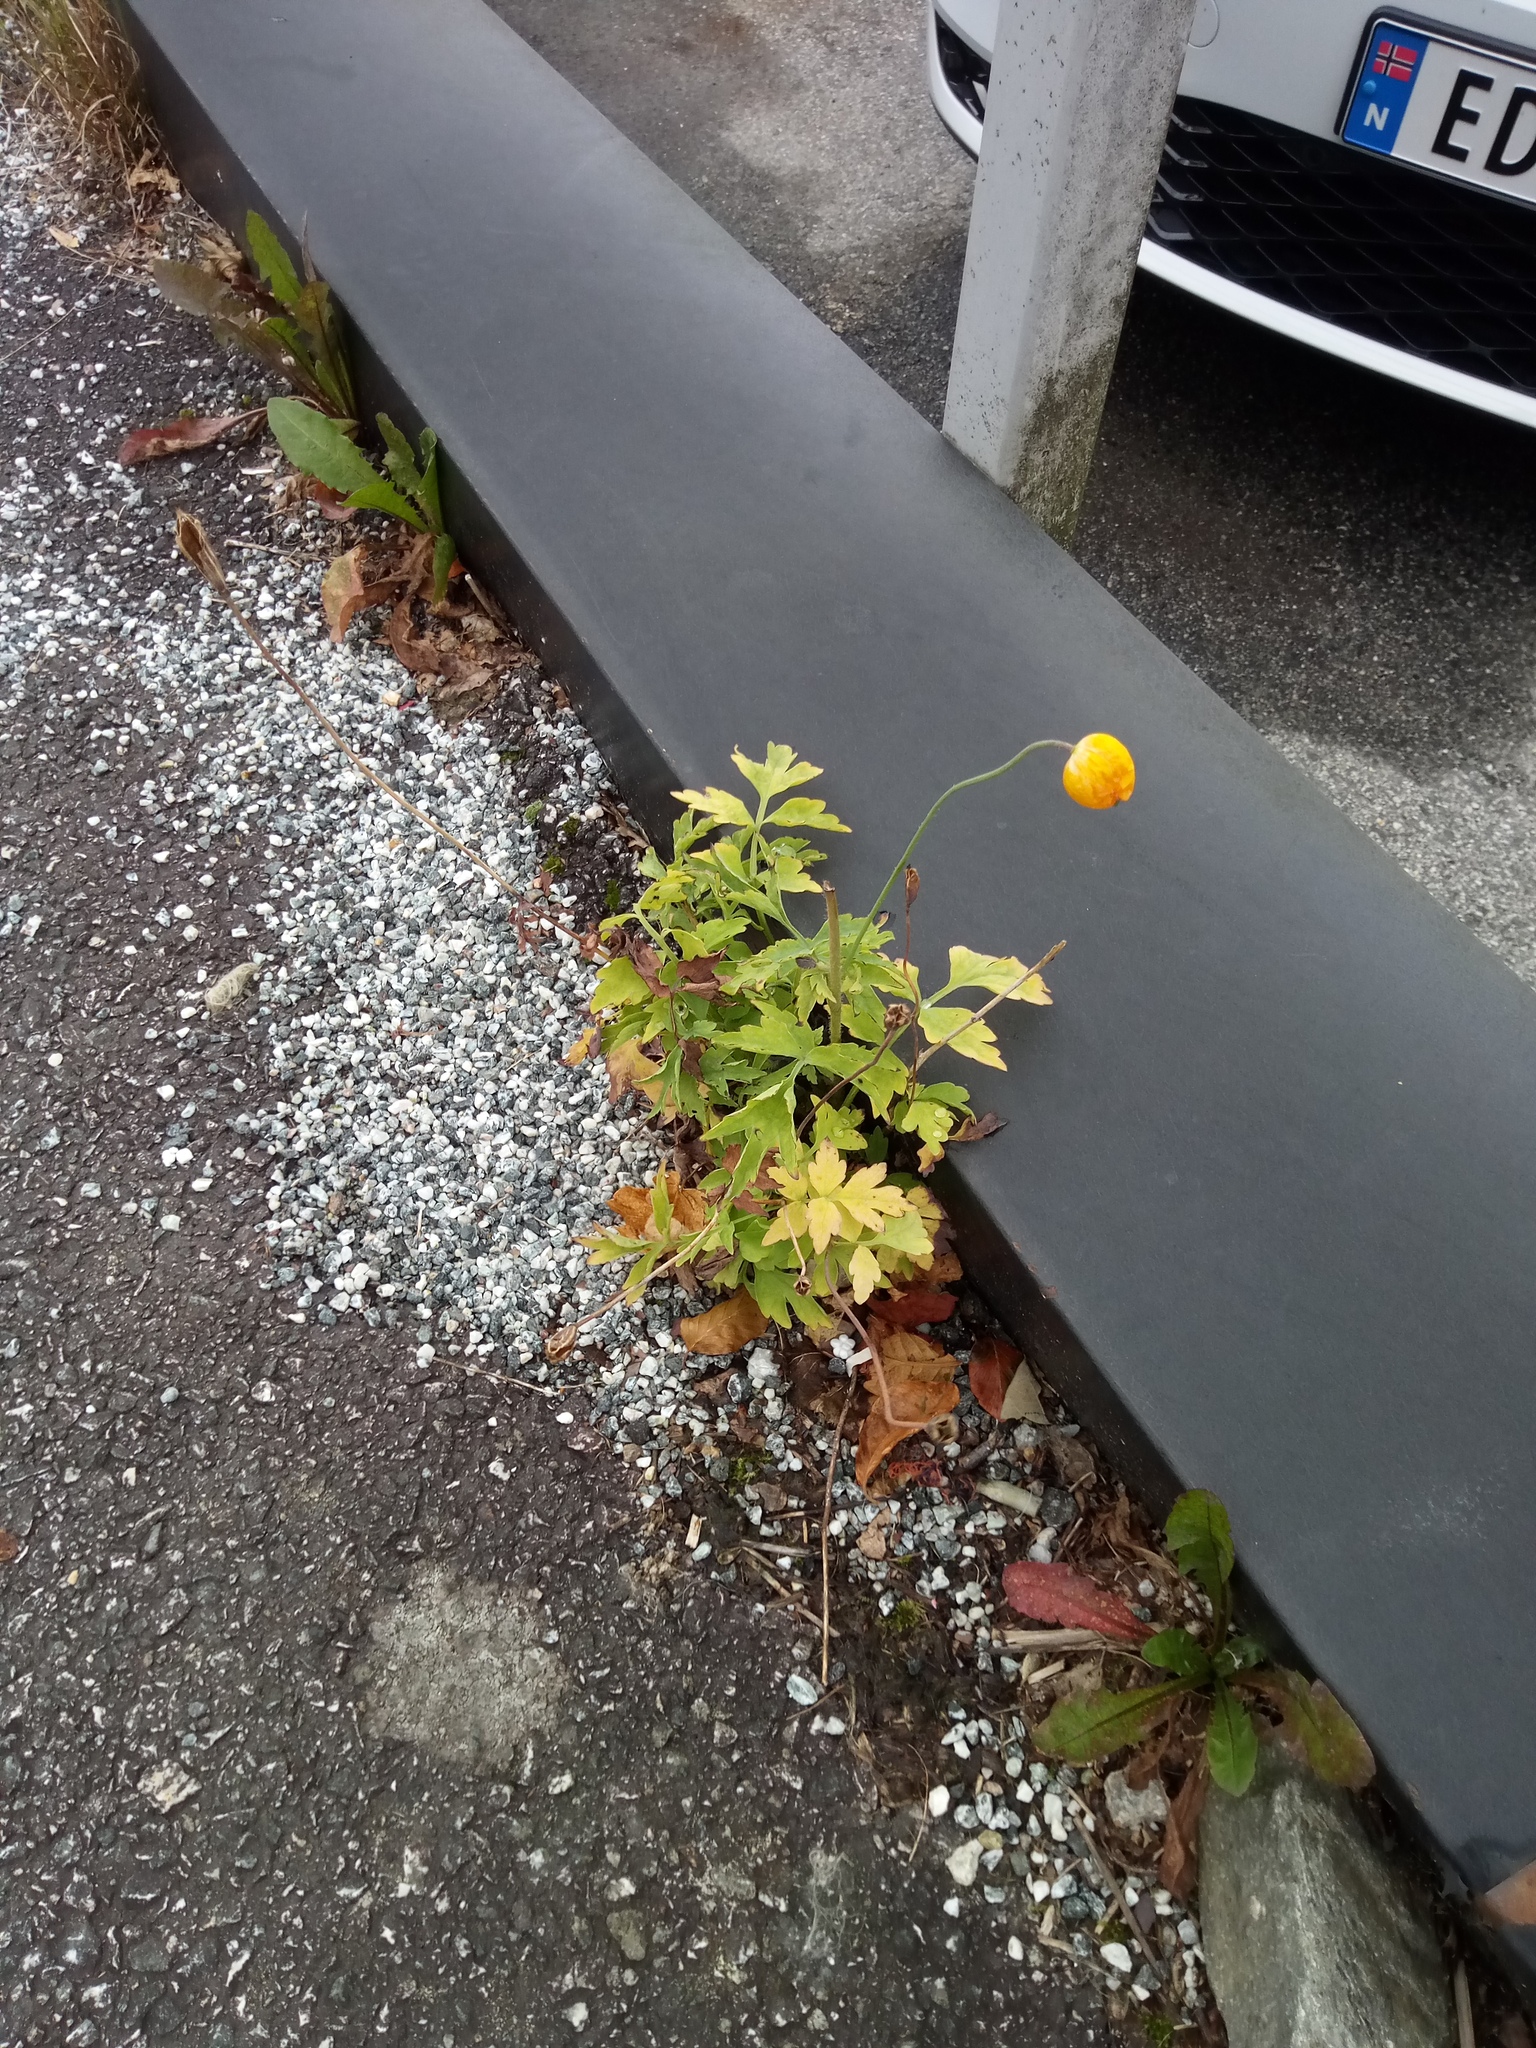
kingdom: Plantae
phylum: Tracheophyta
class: Magnoliopsida
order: Ranunculales
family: Papaveraceae
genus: Papaver
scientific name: Papaver cambricum
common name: Poppy
